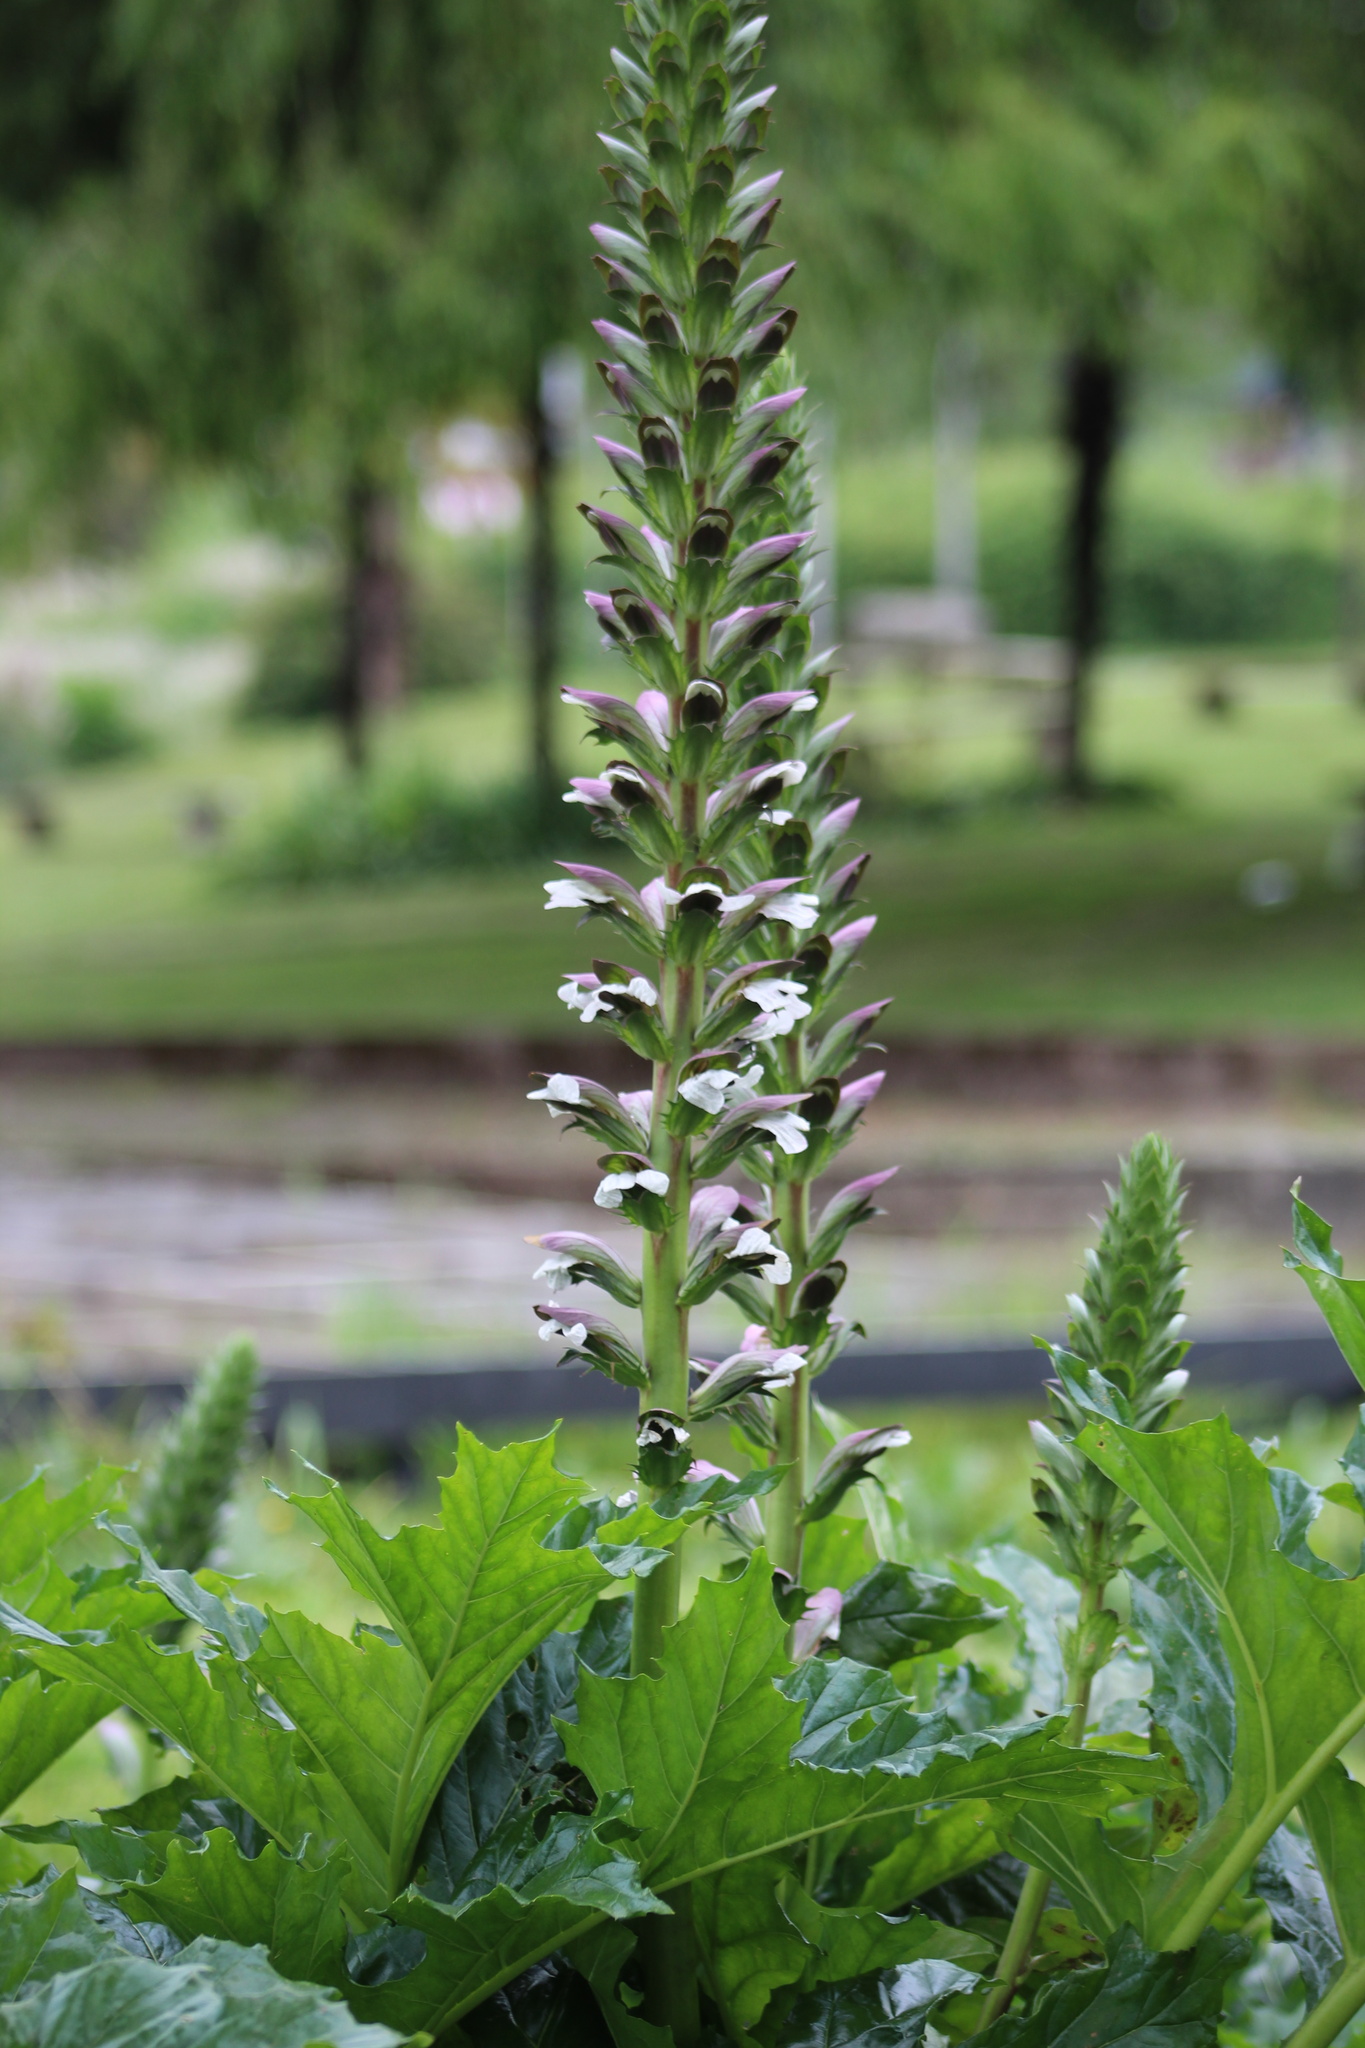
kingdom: Plantae
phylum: Tracheophyta
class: Magnoliopsida
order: Lamiales
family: Acanthaceae
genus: Acanthus
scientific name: Acanthus mollis
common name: Bear's-breech
